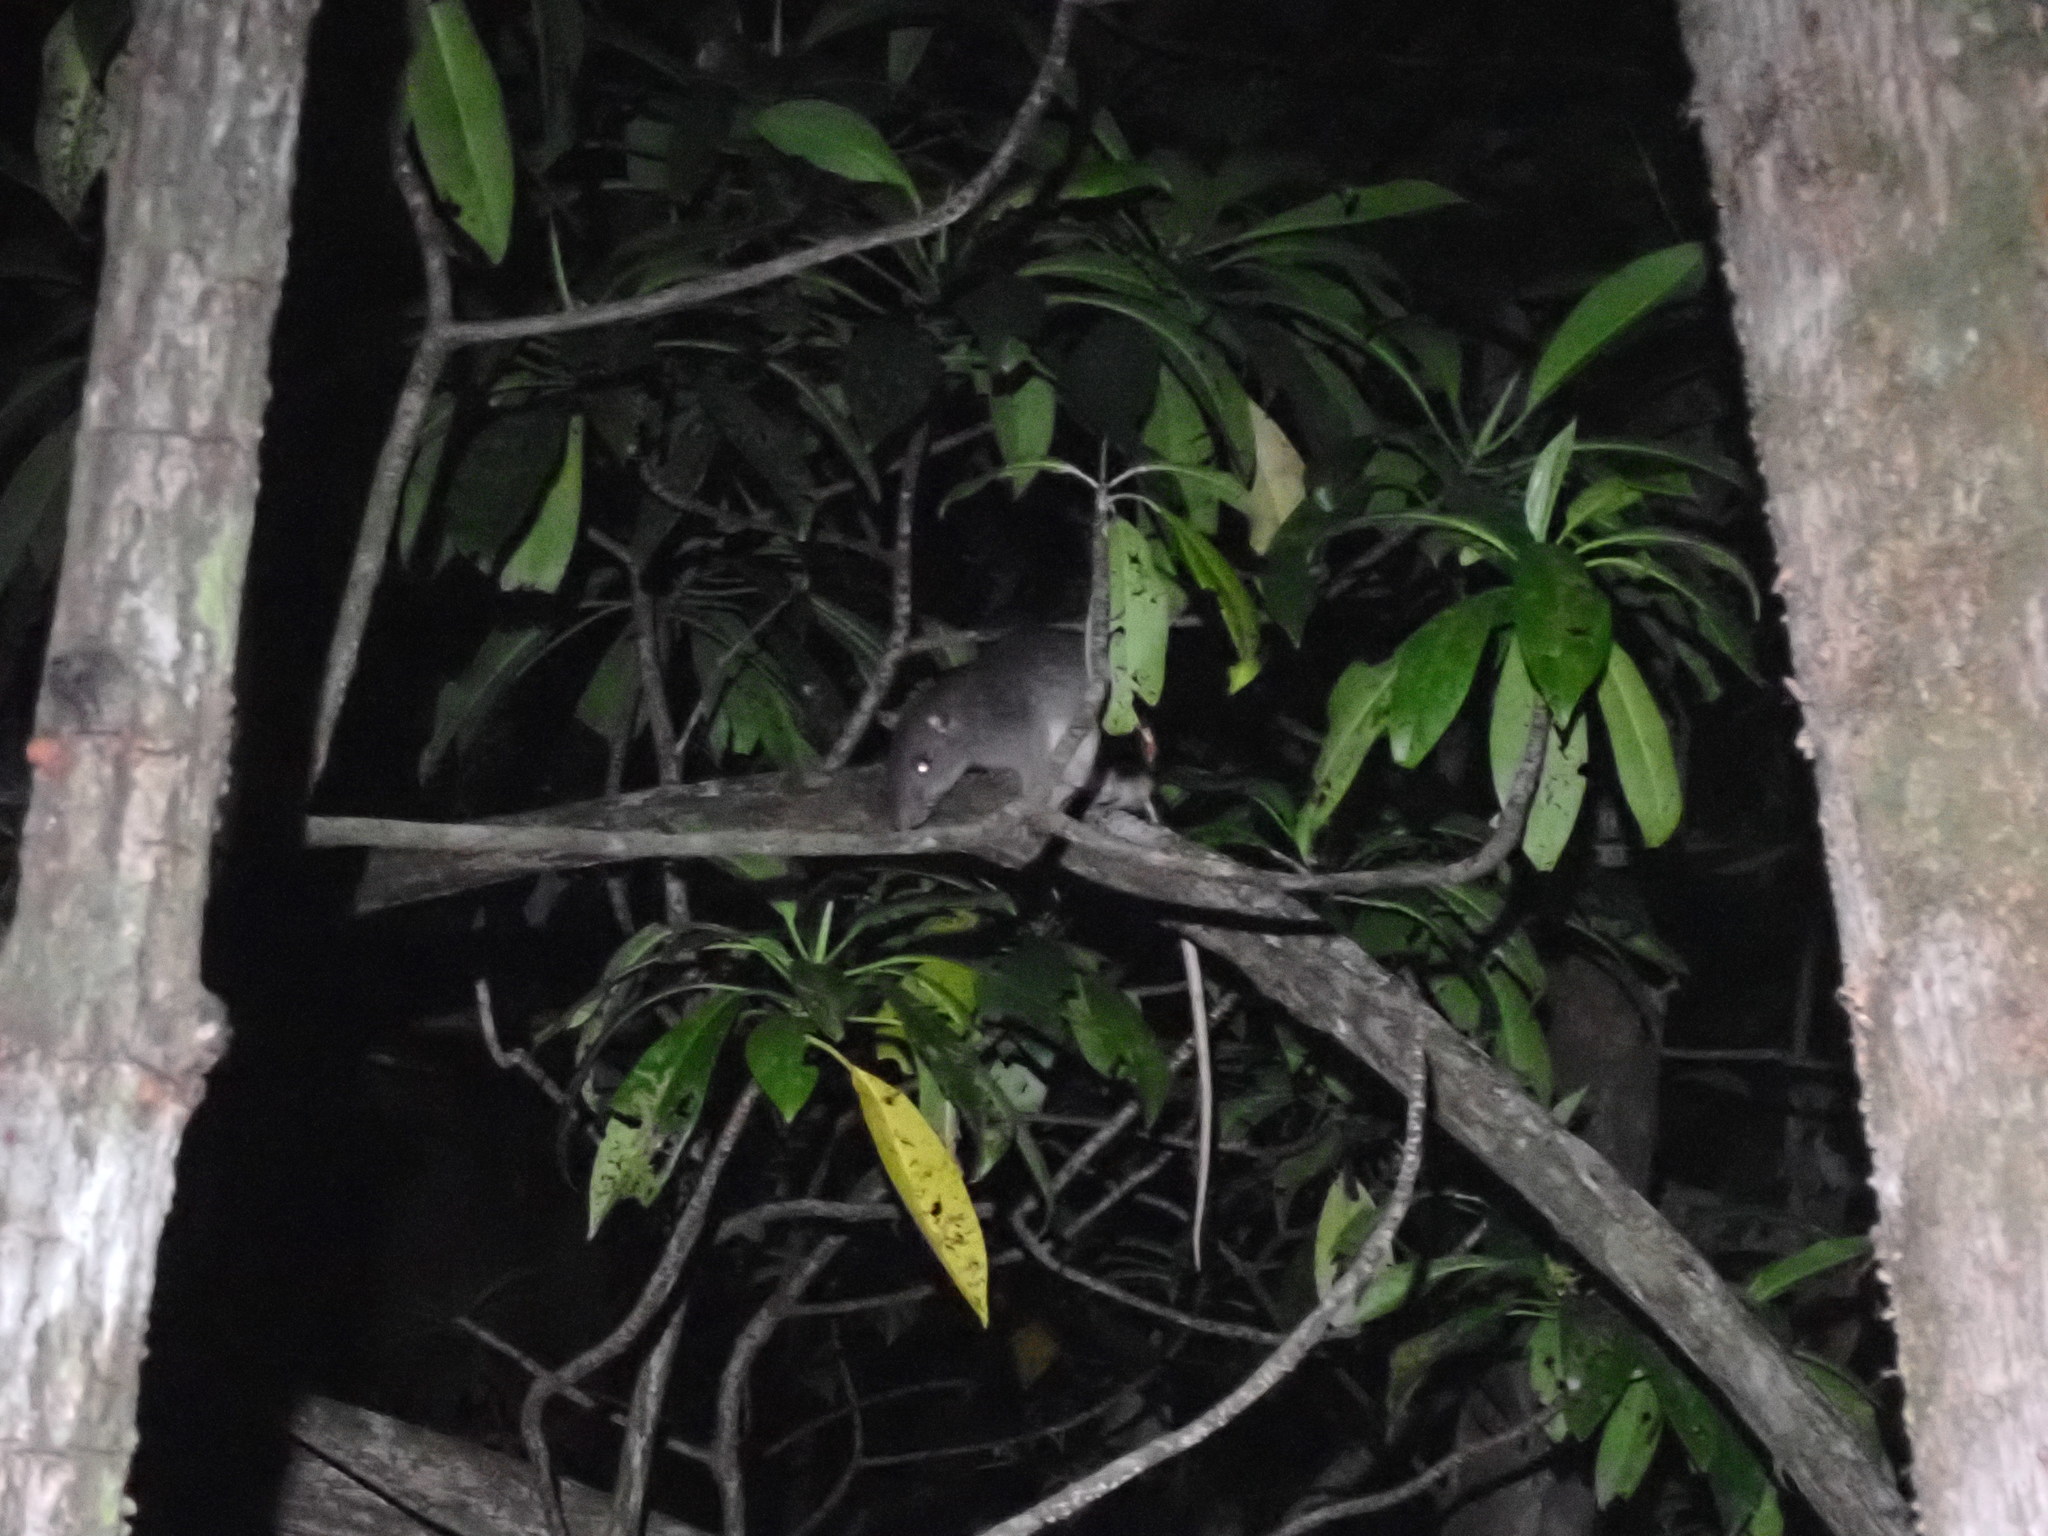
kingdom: Animalia
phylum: Chordata
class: Mammalia
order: Rodentia
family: Muridae
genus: Uromys
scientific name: Uromys caudimaculatus
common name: Giant white-tailed uromys
